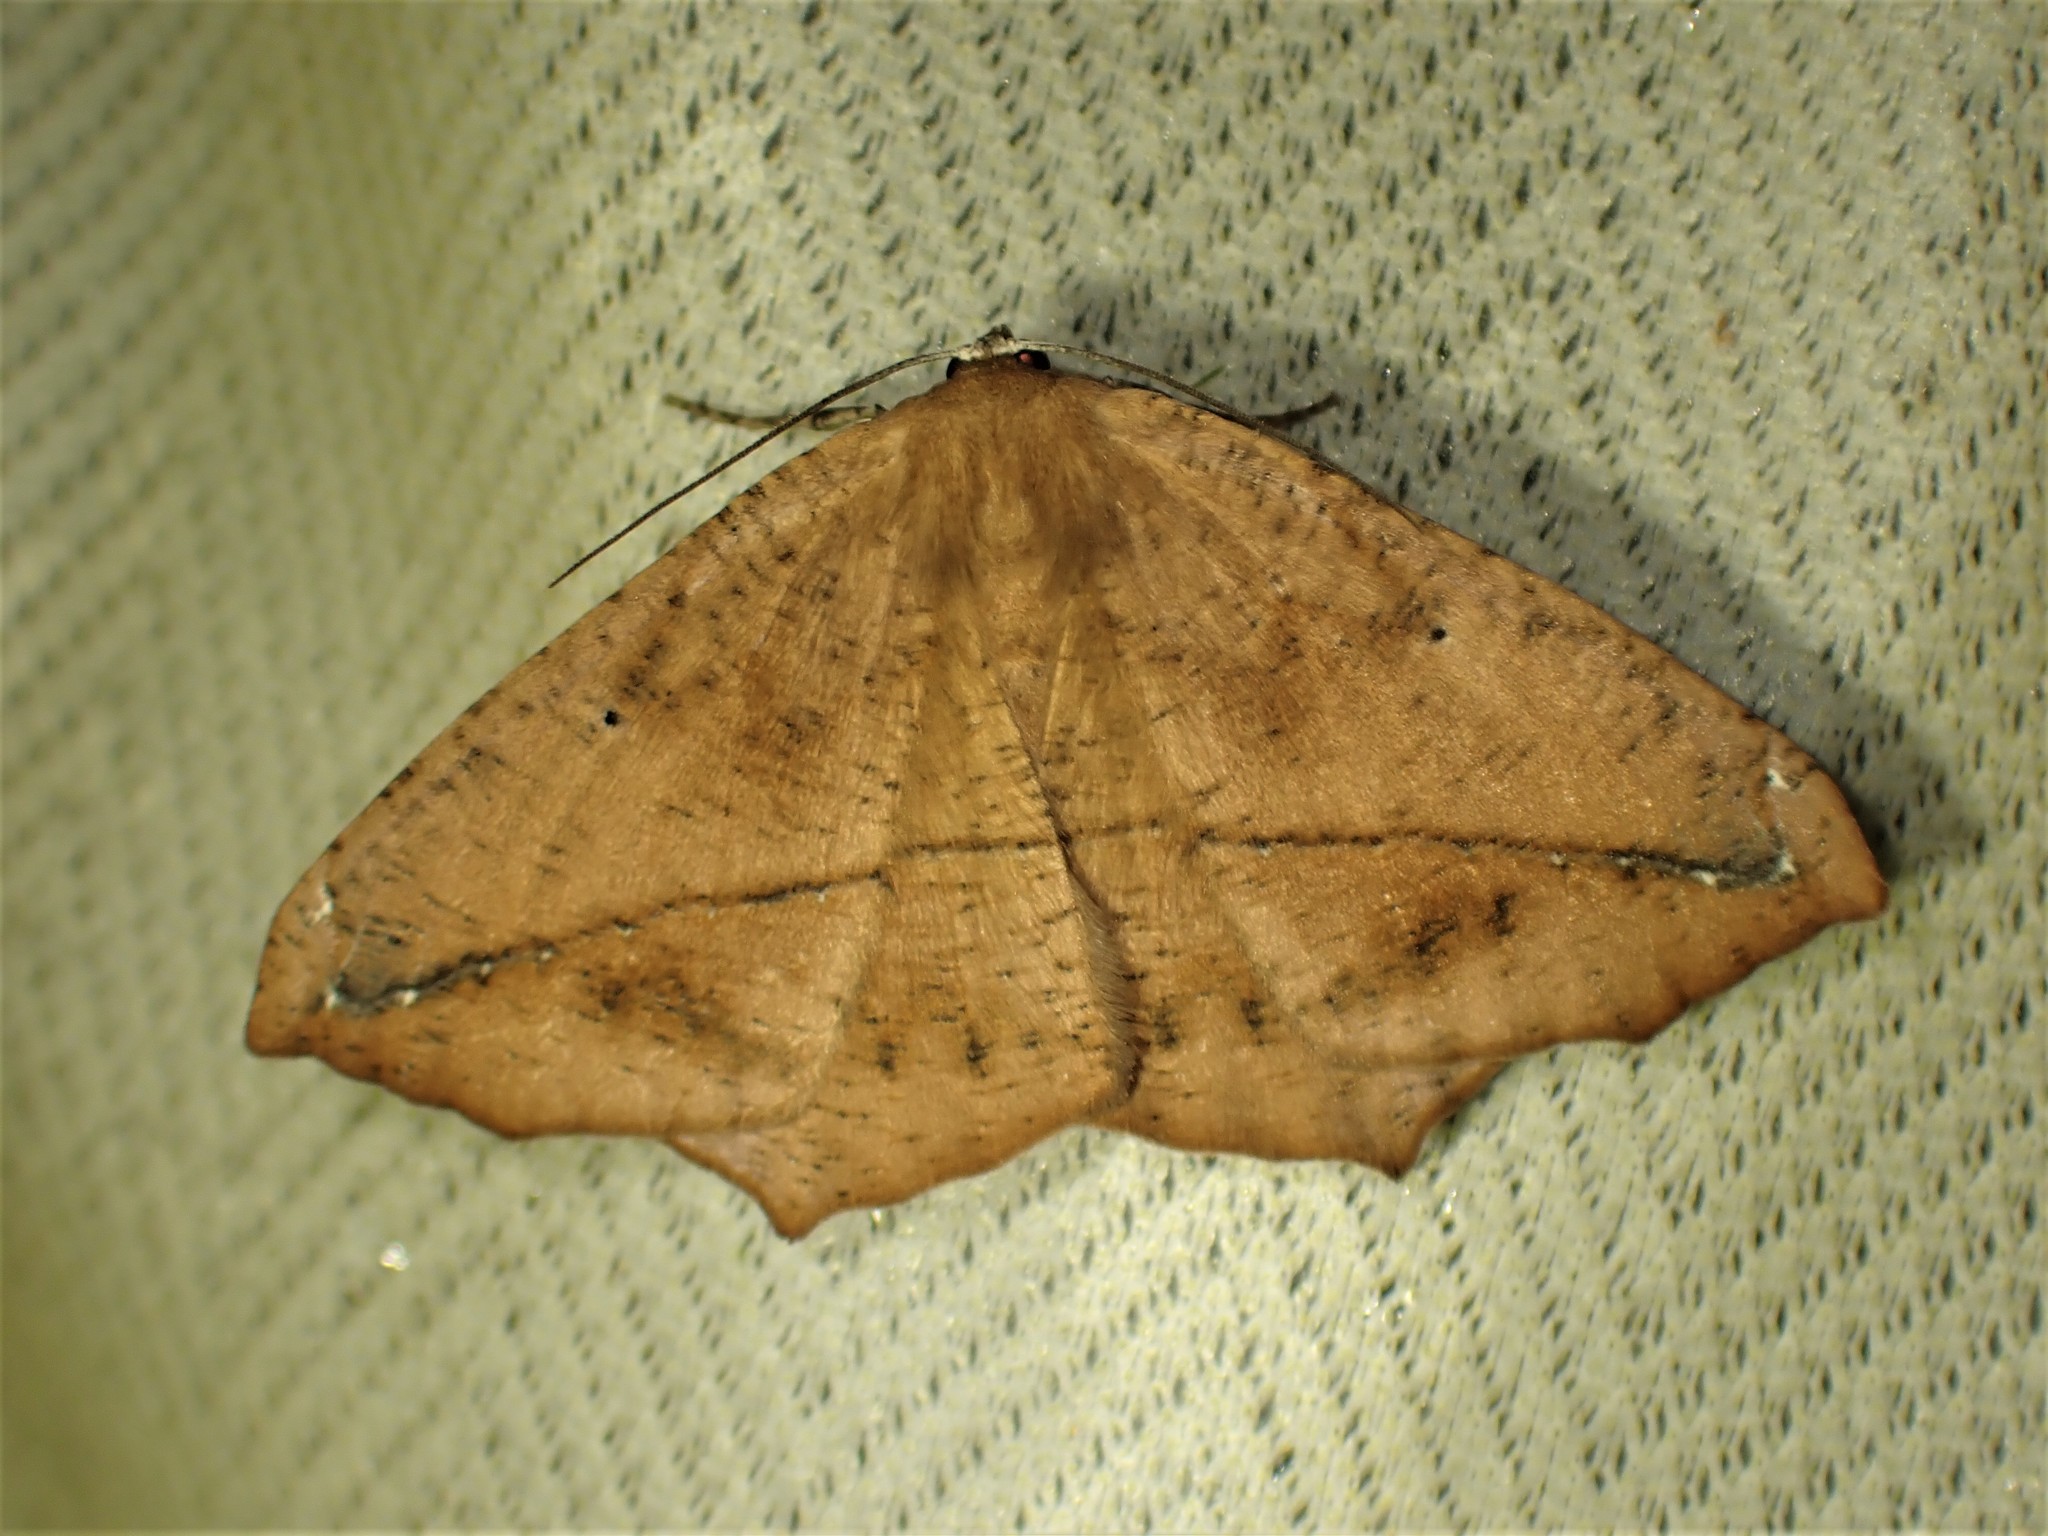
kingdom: Animalia
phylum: Arthropoda
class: Insecta
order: Lepidoptera
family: Geometridae
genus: Prochoerodes
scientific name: Prochoerodes lineola
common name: Large maple spanworm
